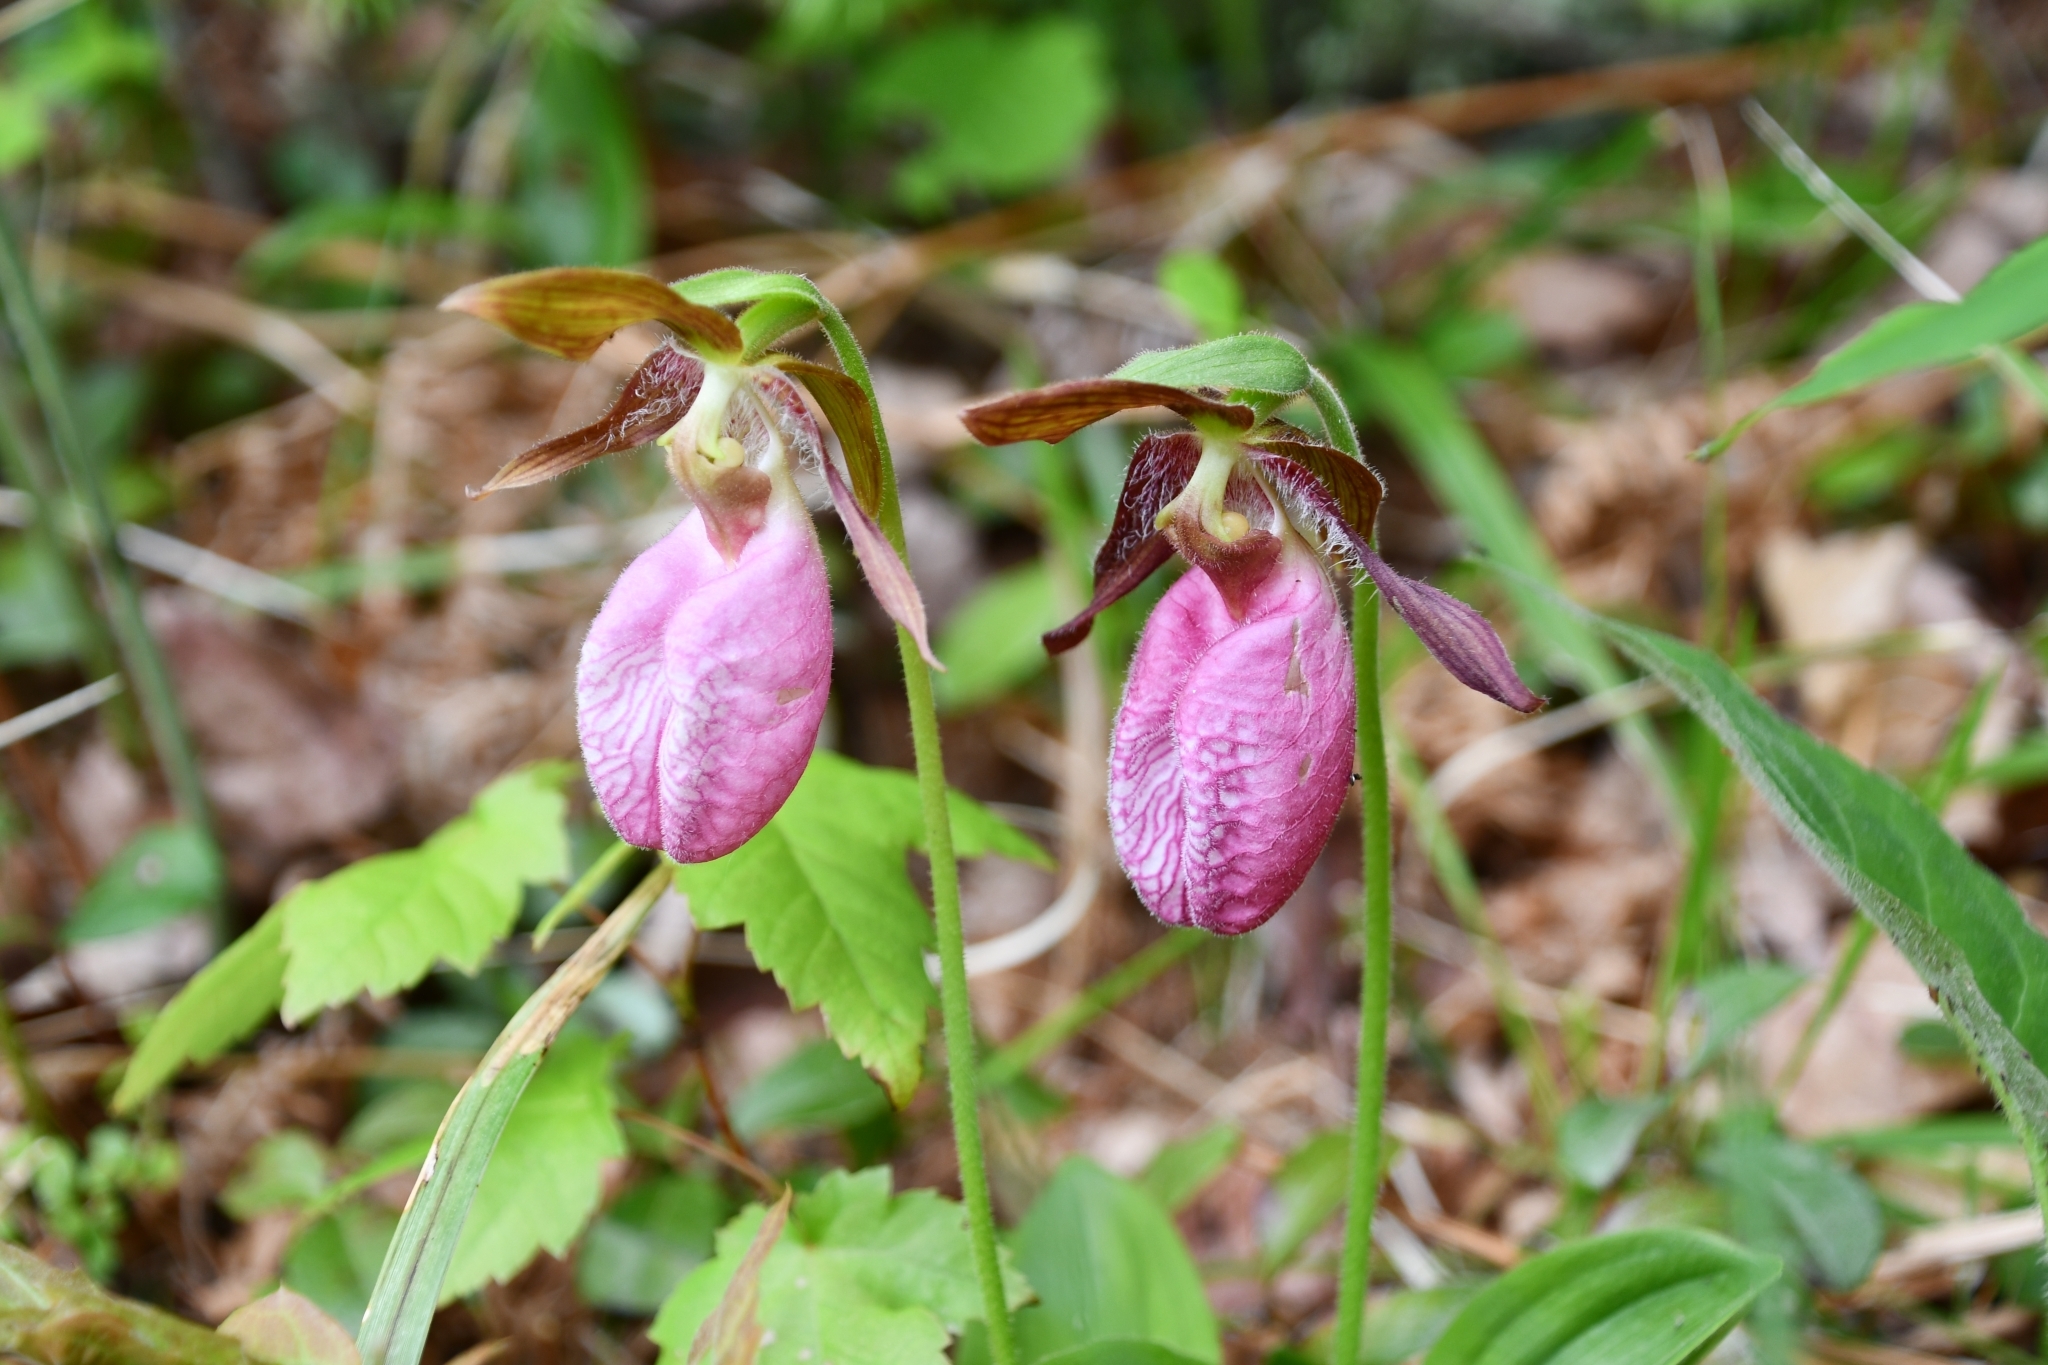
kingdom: Plantae
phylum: Tracheophyta
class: Liliopsida
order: Asparagales
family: Orchidaceae
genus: Cypripedium
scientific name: Cypripedium acaule
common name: Pink lady's-slipper
